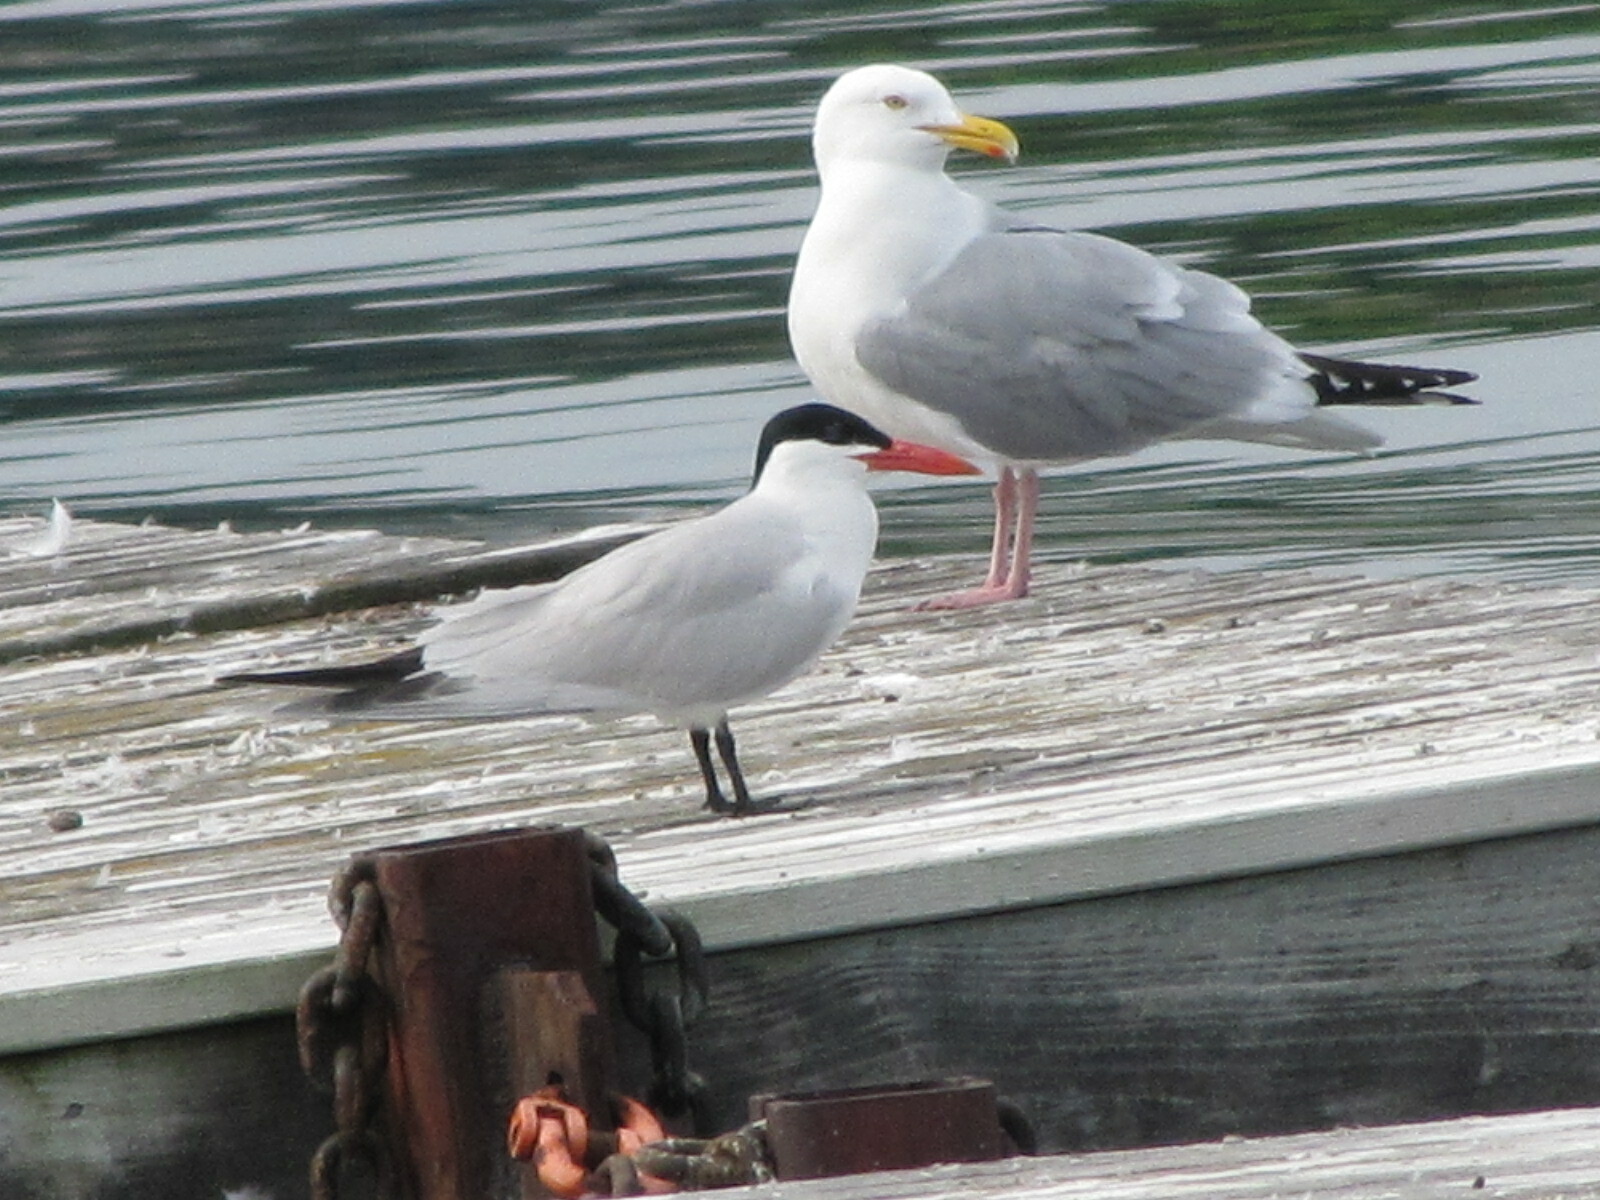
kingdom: Animalia
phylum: Chordata
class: Aves
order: Charadriiformes
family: Laridae
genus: Hydroprogne
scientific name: Hydroprogne caspia
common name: Caspian tern
